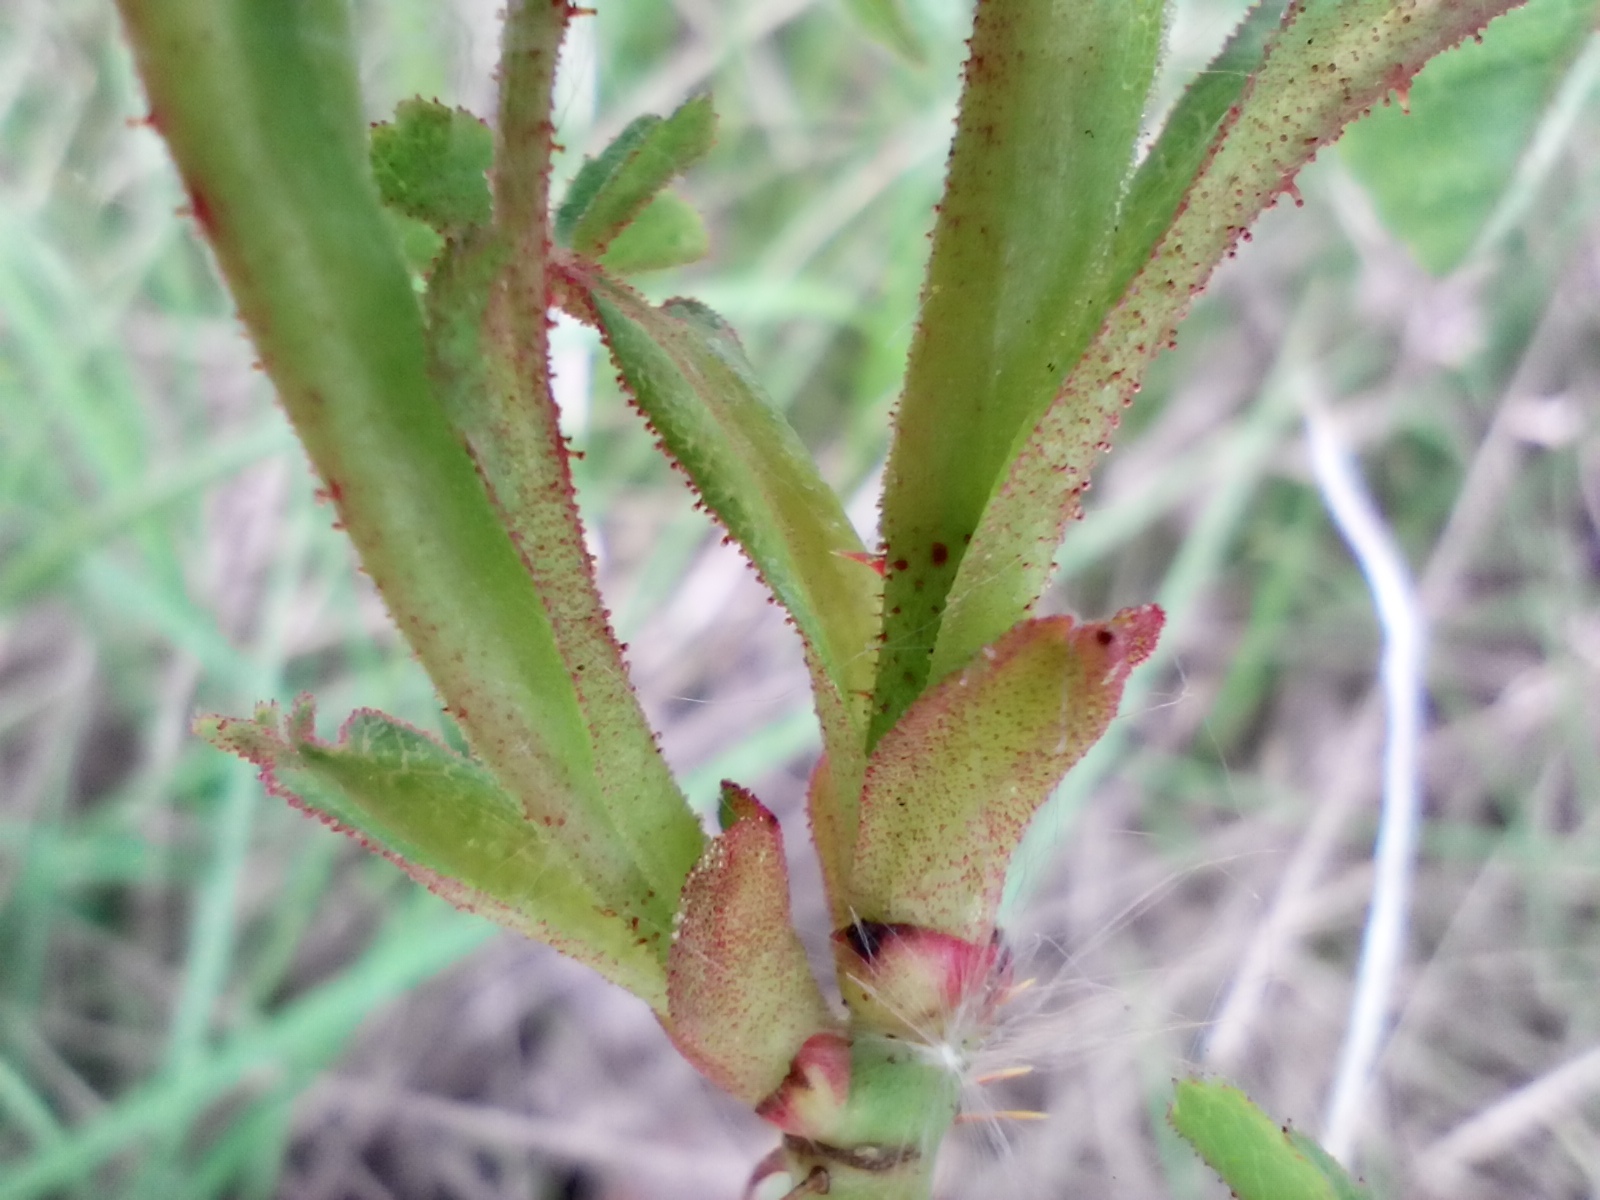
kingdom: Plantae
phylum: Tracheophyta
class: Magnoliopsida
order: Rosales
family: Rosaceae
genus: Rosa
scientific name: Rosa gallica
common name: French rose
